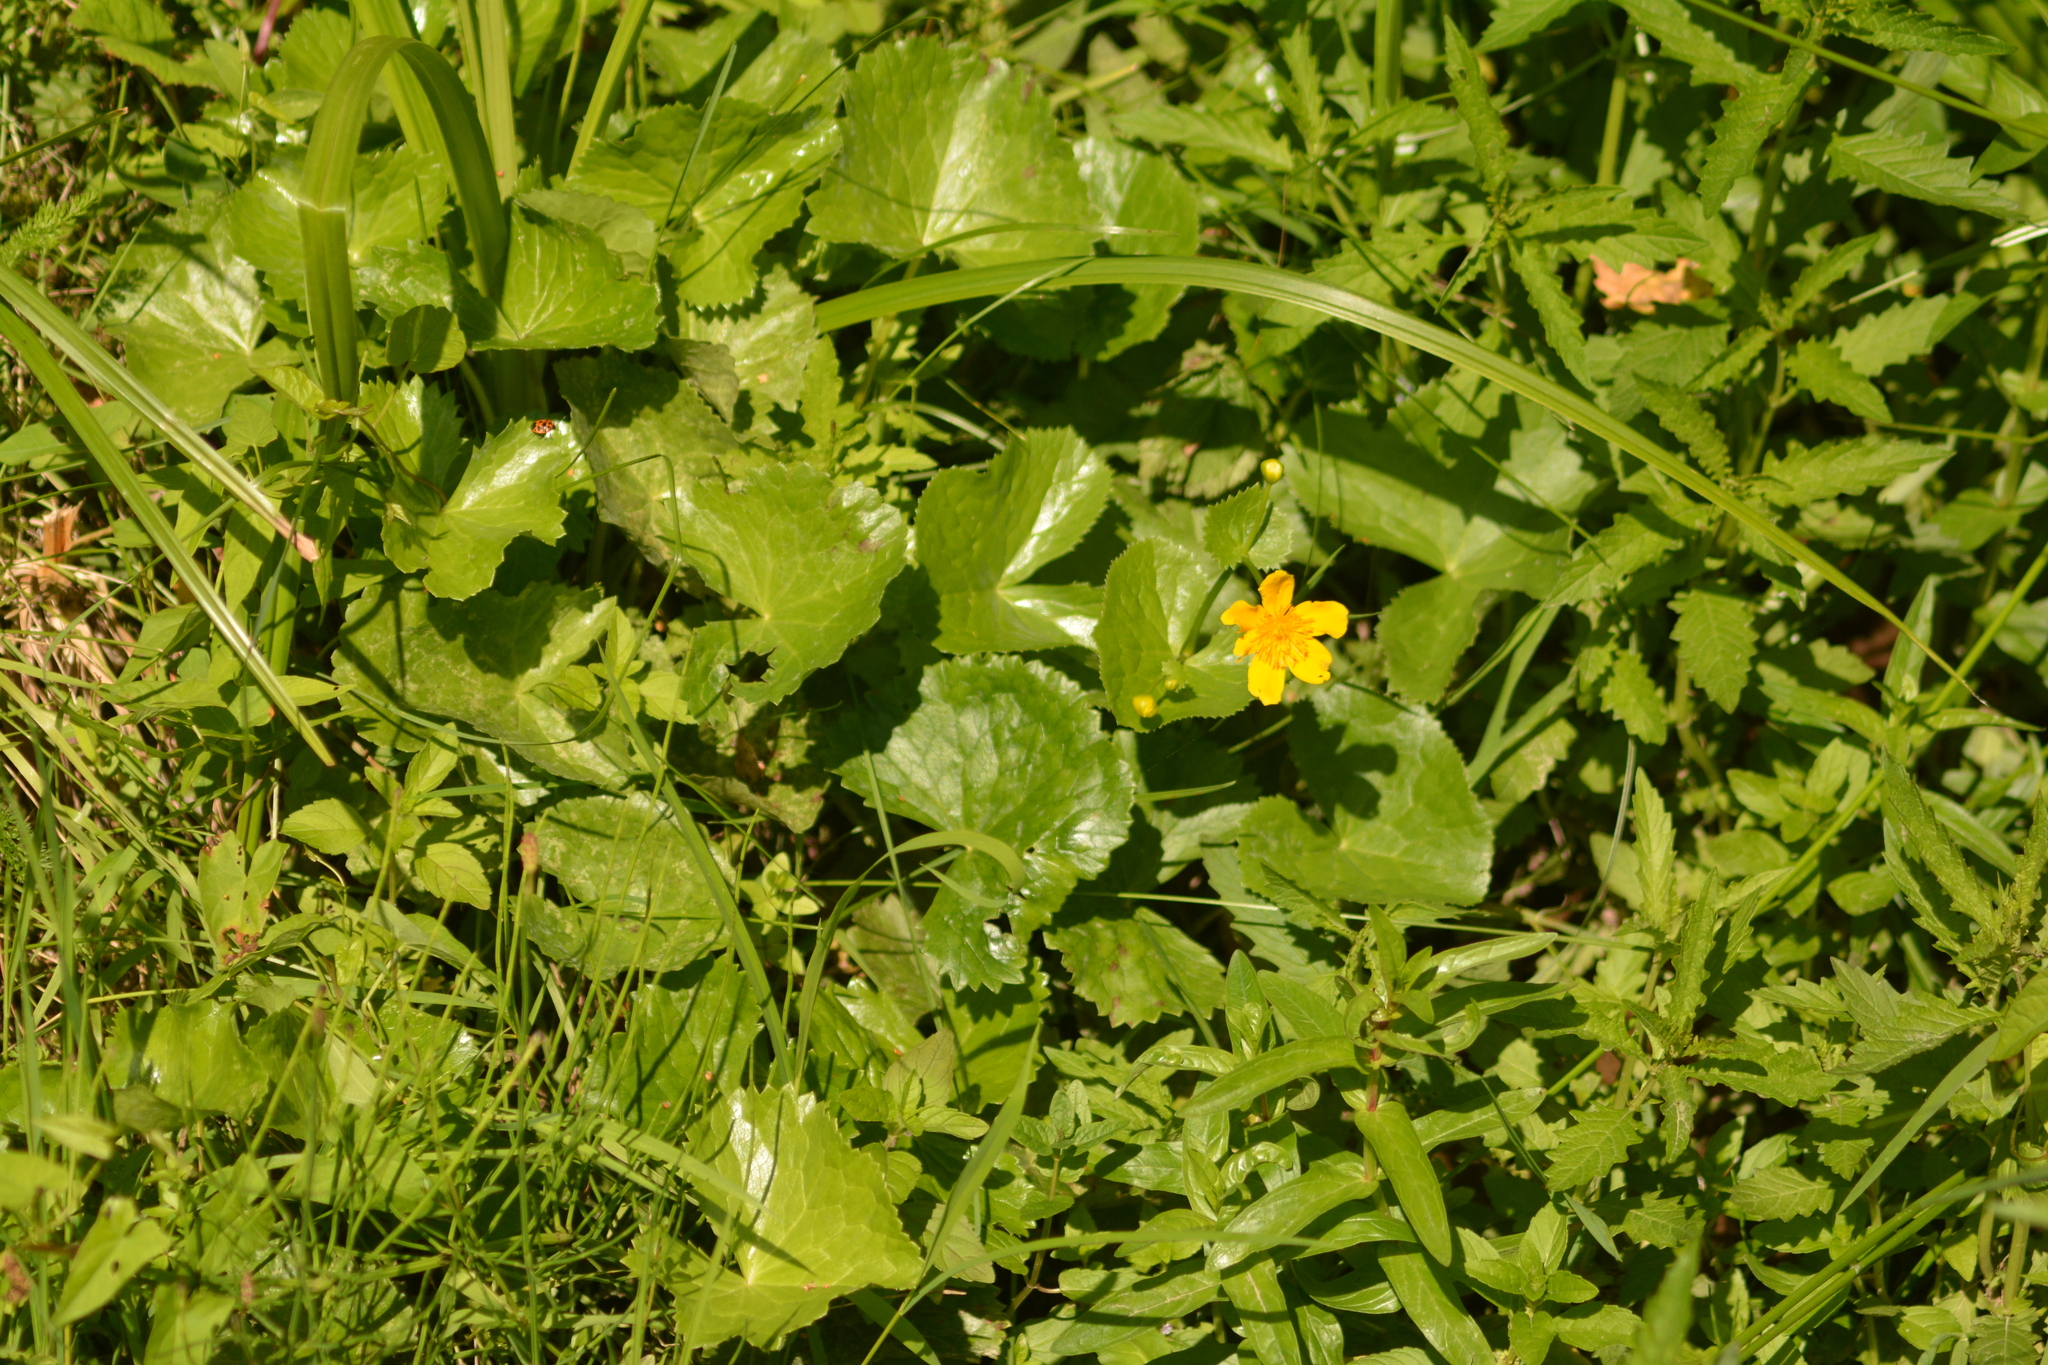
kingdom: Plantae
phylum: Tracheophyta
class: Magnoliopsida
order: Ranunculales
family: Ranunculaceae
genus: Caltha
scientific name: Caltha palustris
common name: Marsh marigold
